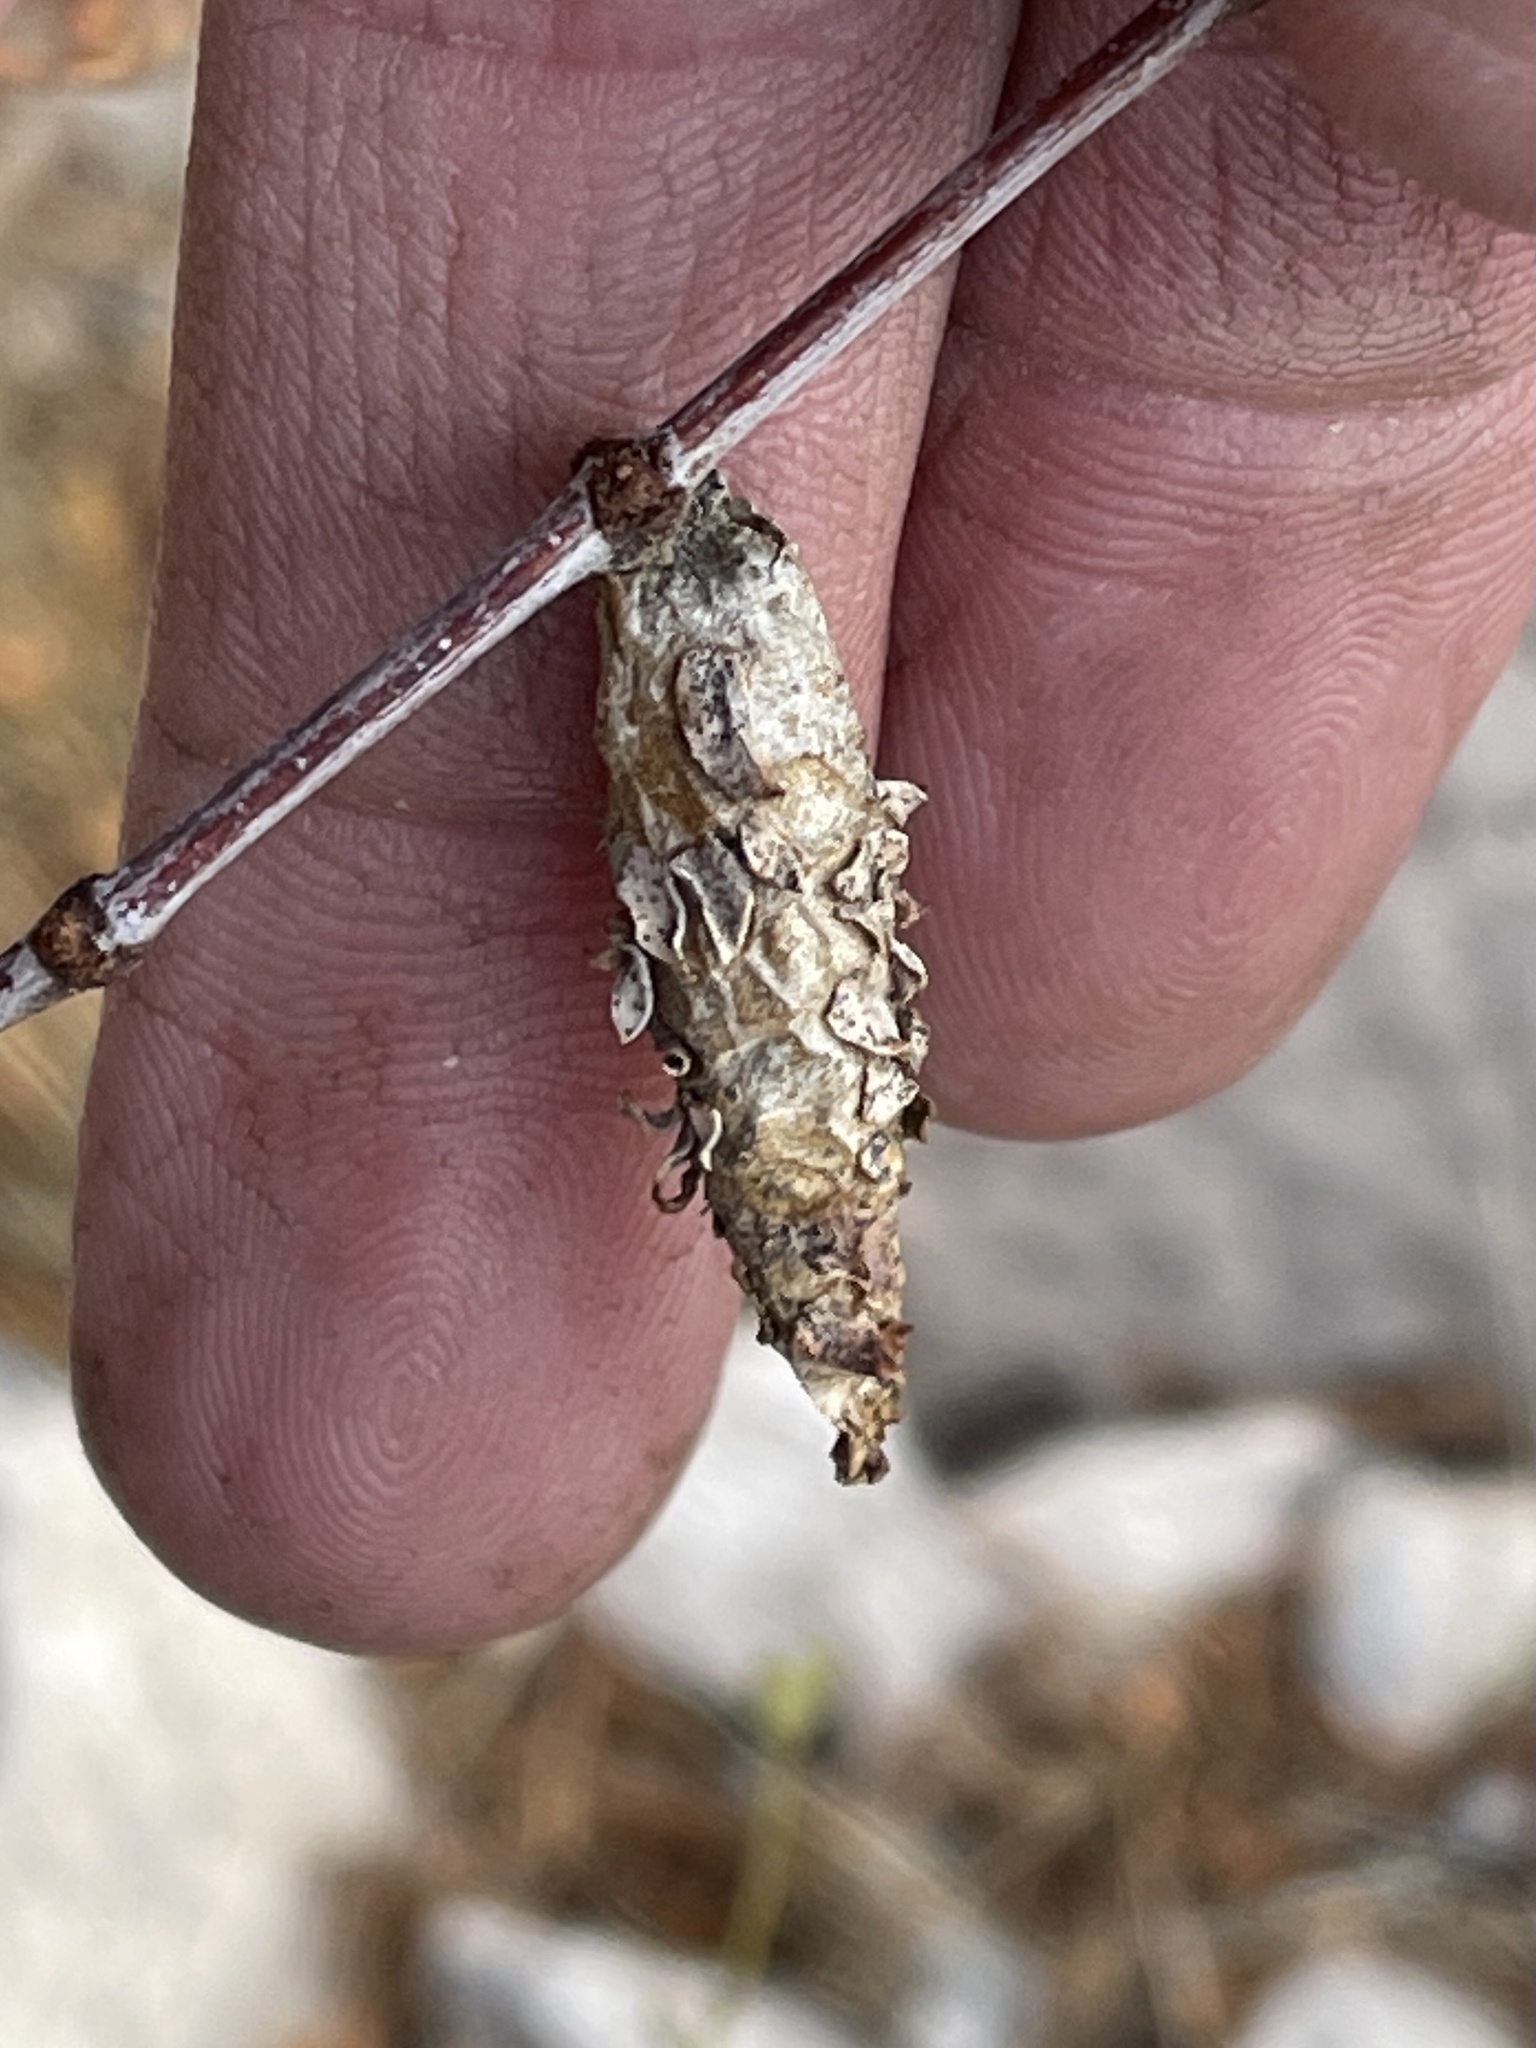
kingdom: Animalia
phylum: Arthropoda
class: Insecta
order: Lepidoptera
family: Psychidae
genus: Thyridopteryx
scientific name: Thyridopteryx meadii
